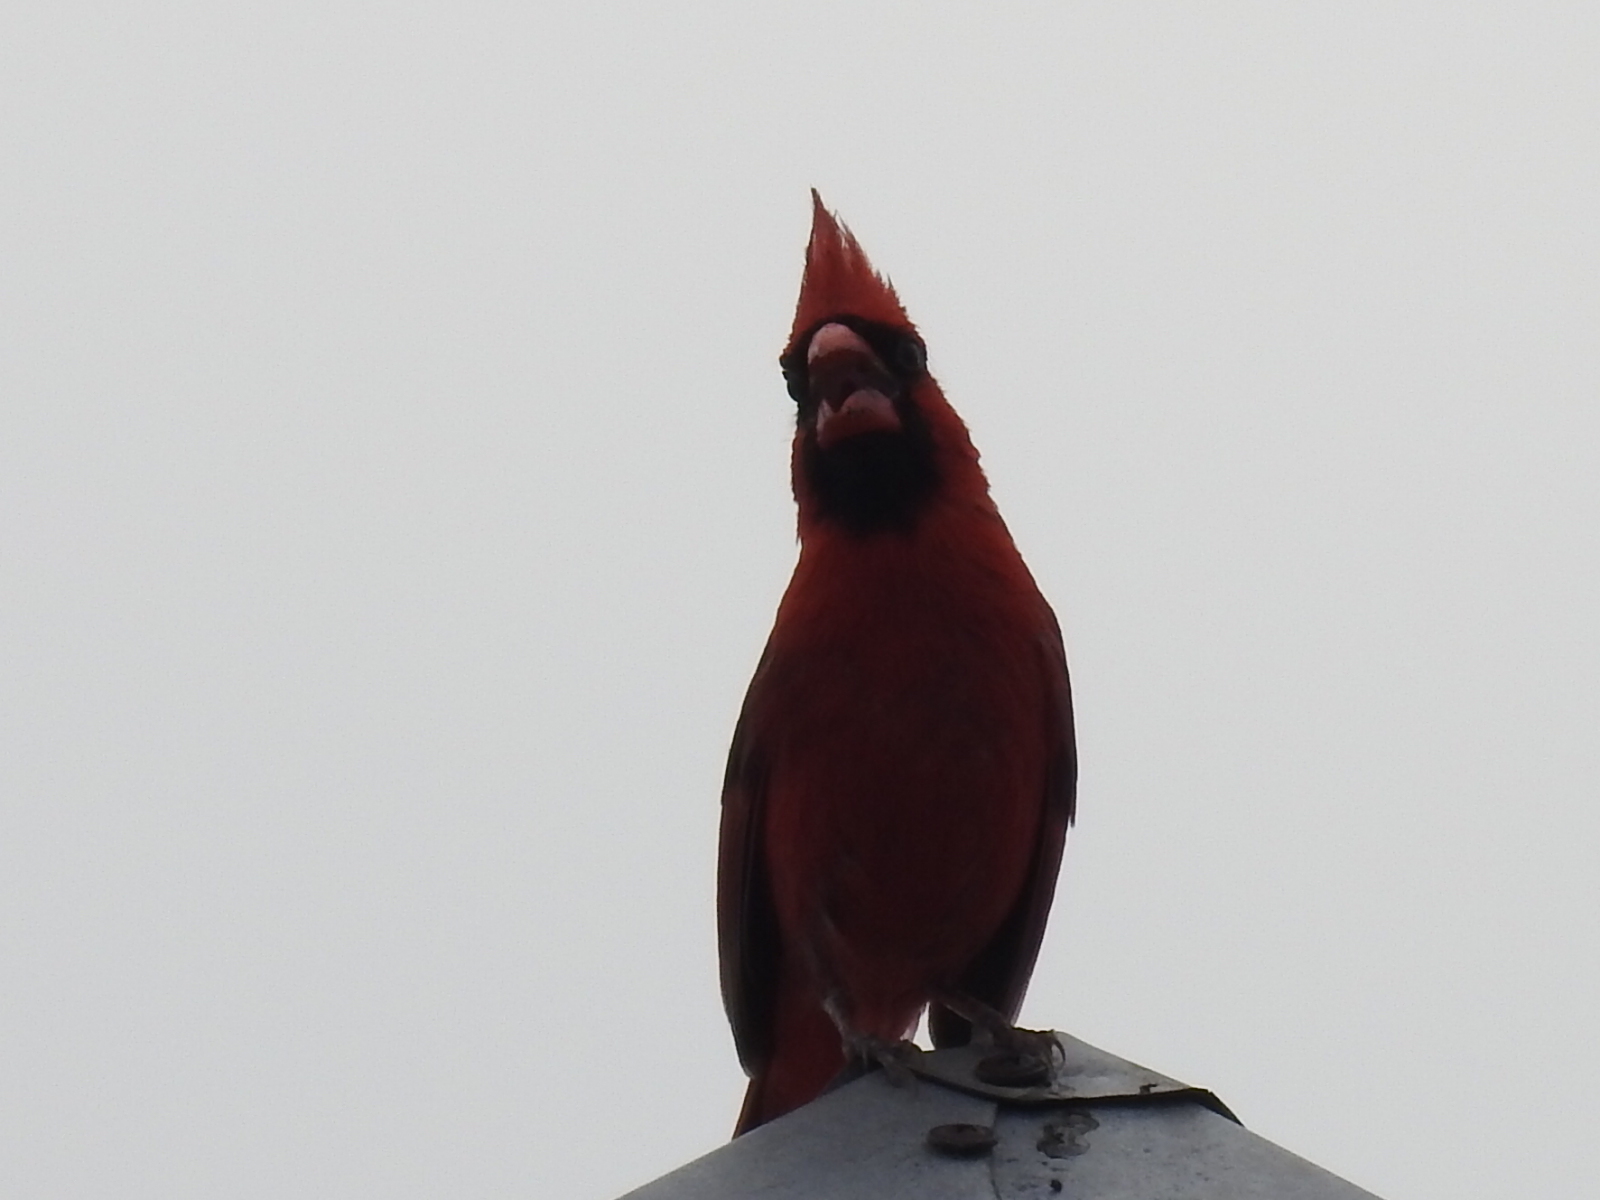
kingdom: Animalia
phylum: Chordata
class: Aves
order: Passeriformes
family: Cardinalidae
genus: Cardinalis
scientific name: Cardinalis cardinalis
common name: Northern cardinal
